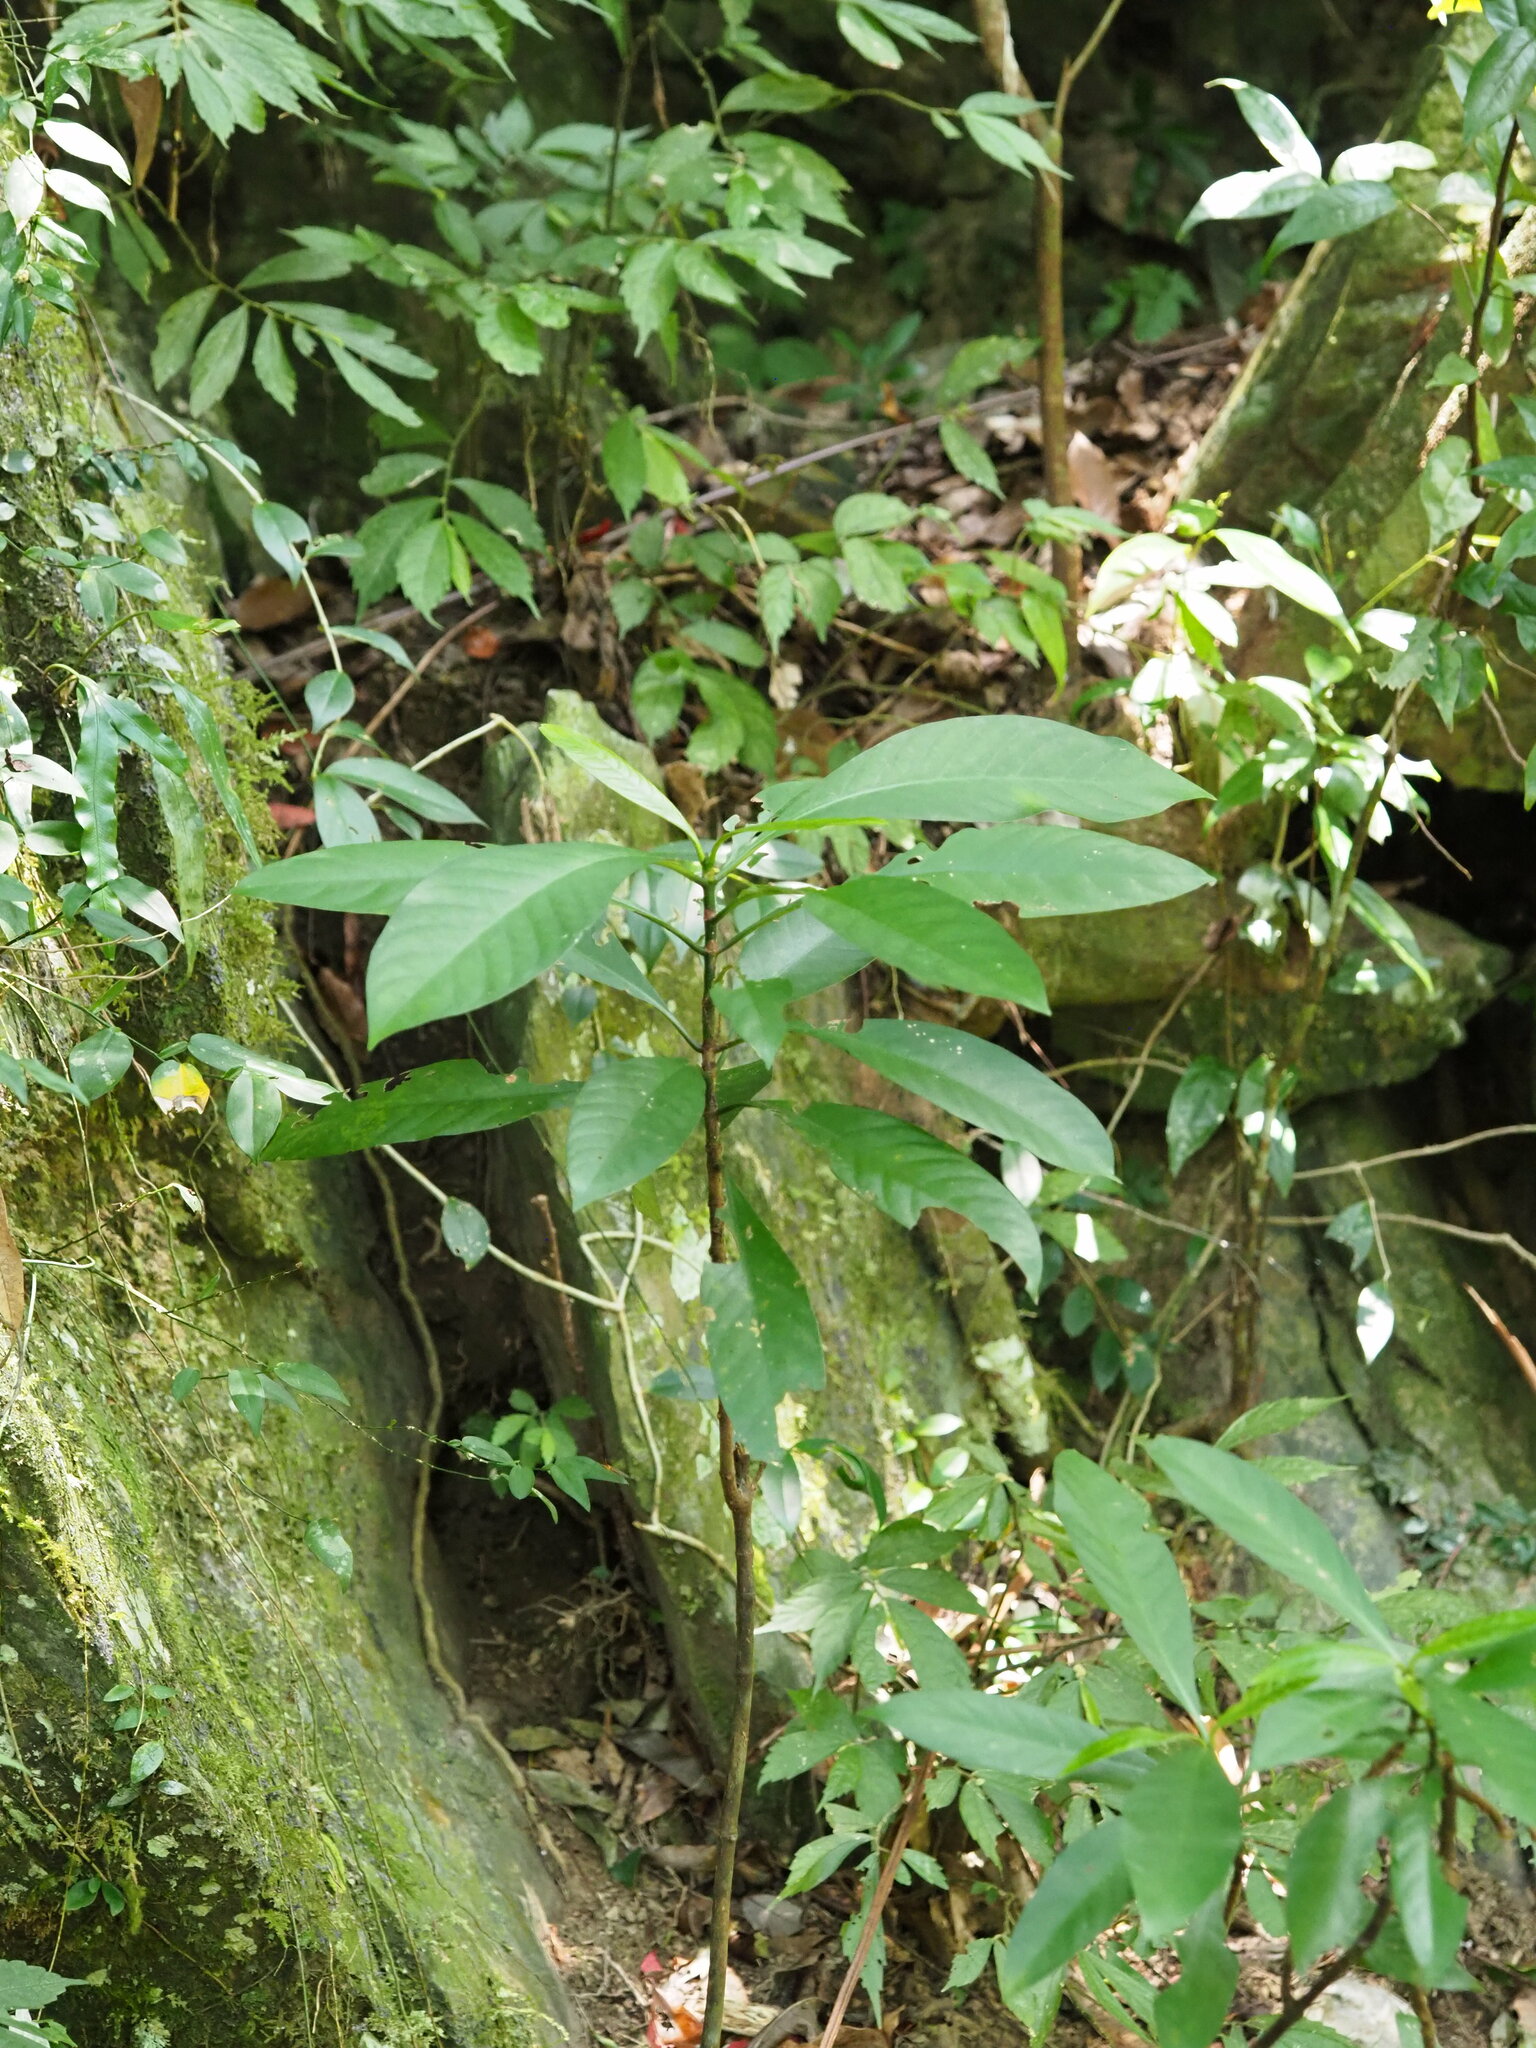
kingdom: Plantae
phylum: Tracheophyta
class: Magnoliopsida
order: Gentianales
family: Rubiaceae
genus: Psychotria
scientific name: Psychotria asiatica
